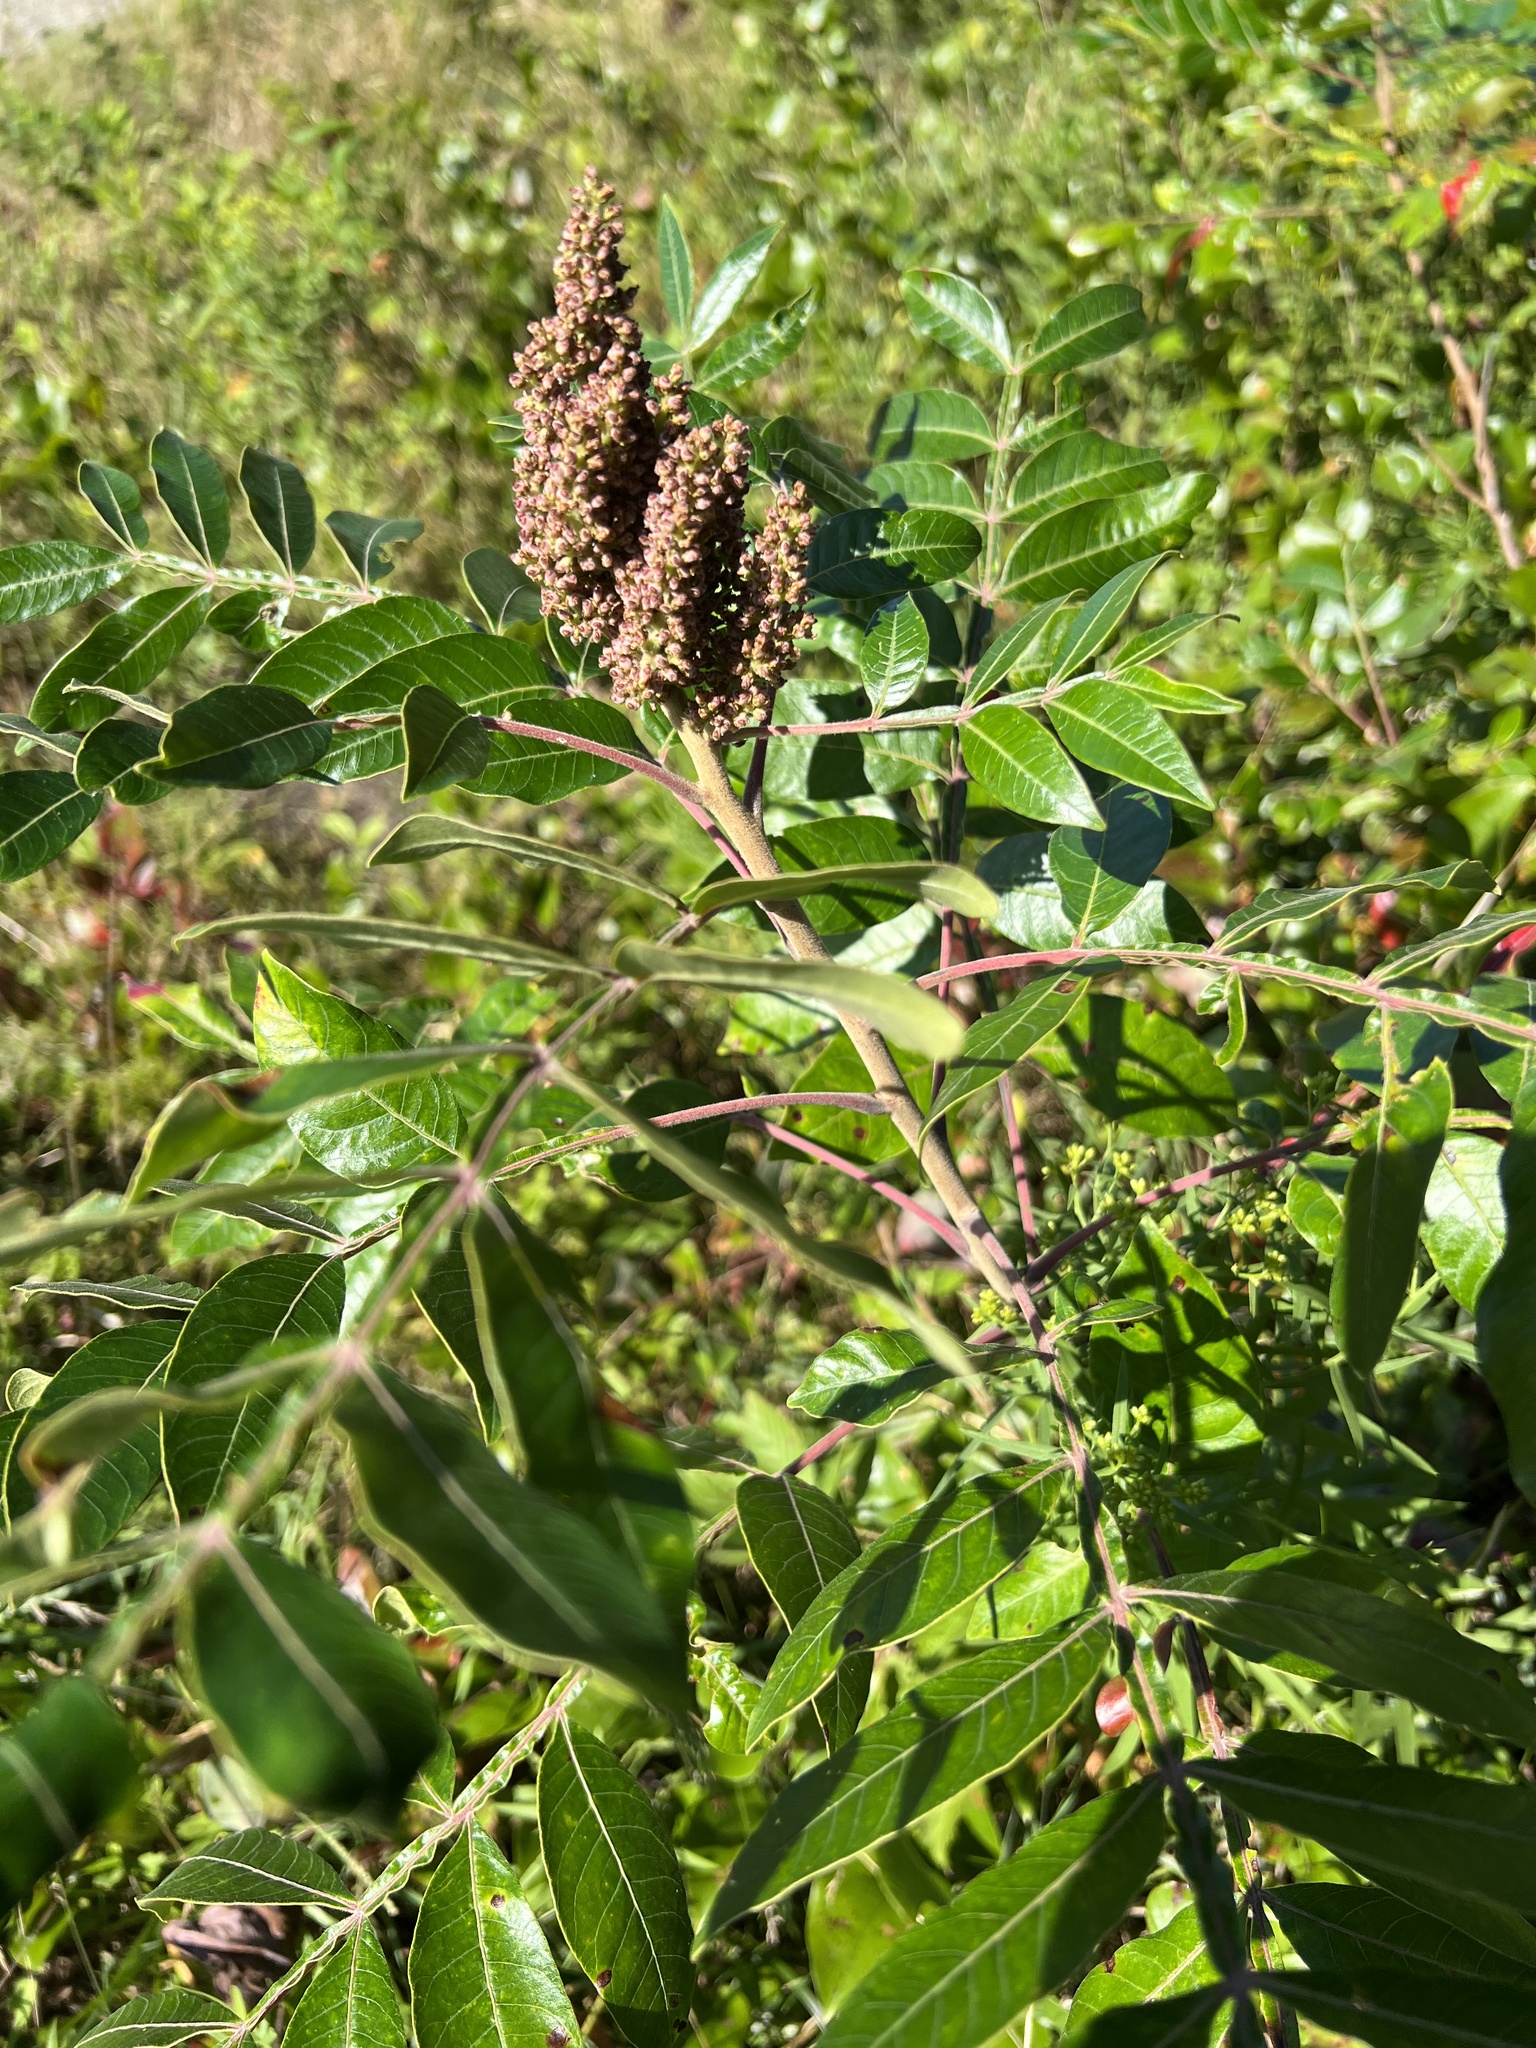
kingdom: Plantae
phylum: Tracheophyta
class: Magnoliopsida
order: Sapindales
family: Anacardiaceae
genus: Rhus
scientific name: Rhus copallina
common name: Shining sumac
